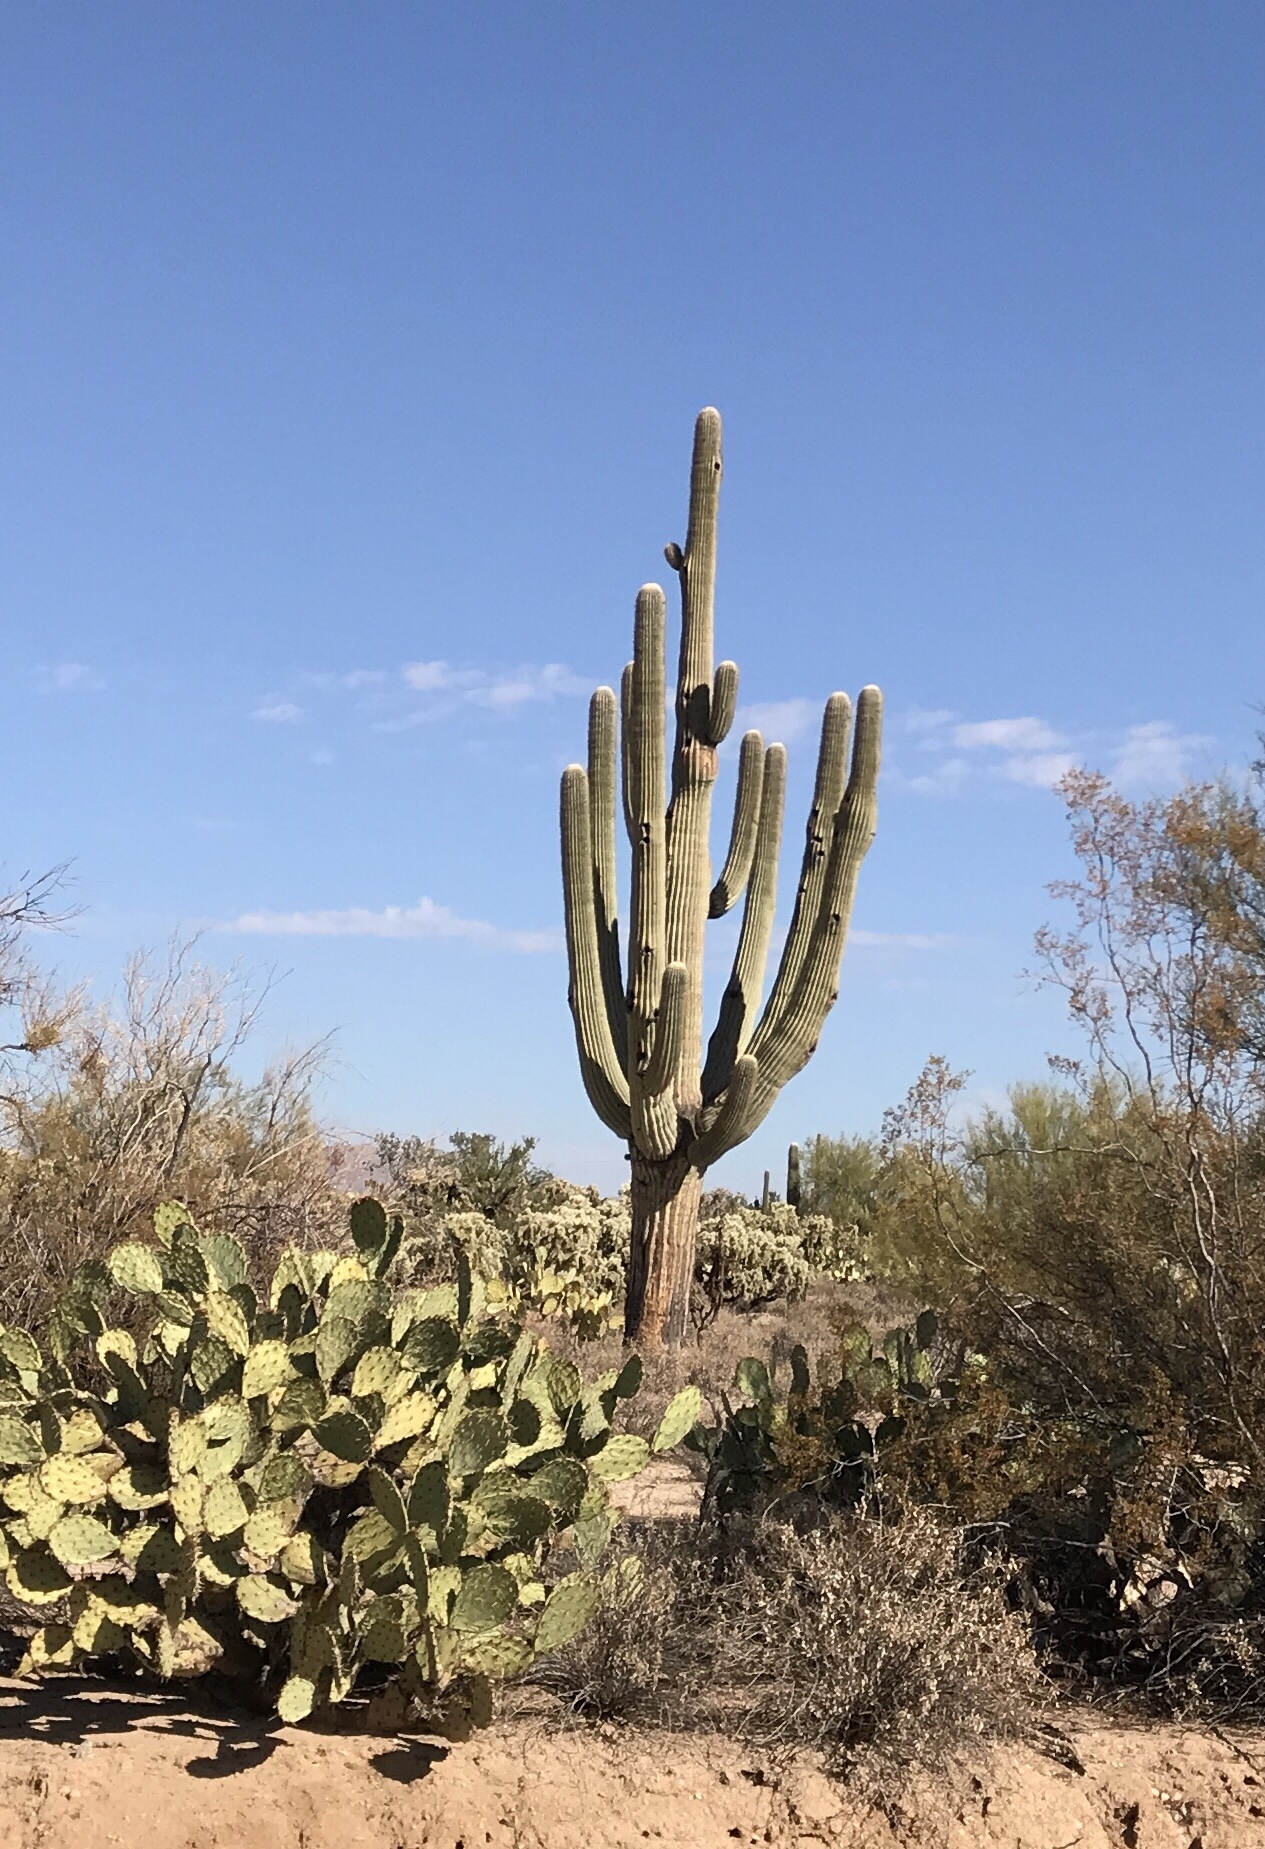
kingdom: Plantae
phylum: Tracheophyta
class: Magnoliopsida
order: Caryophyllales
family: Cactaceae
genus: Carnegiea
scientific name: Carnegiea gigantea
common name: Saguaro
